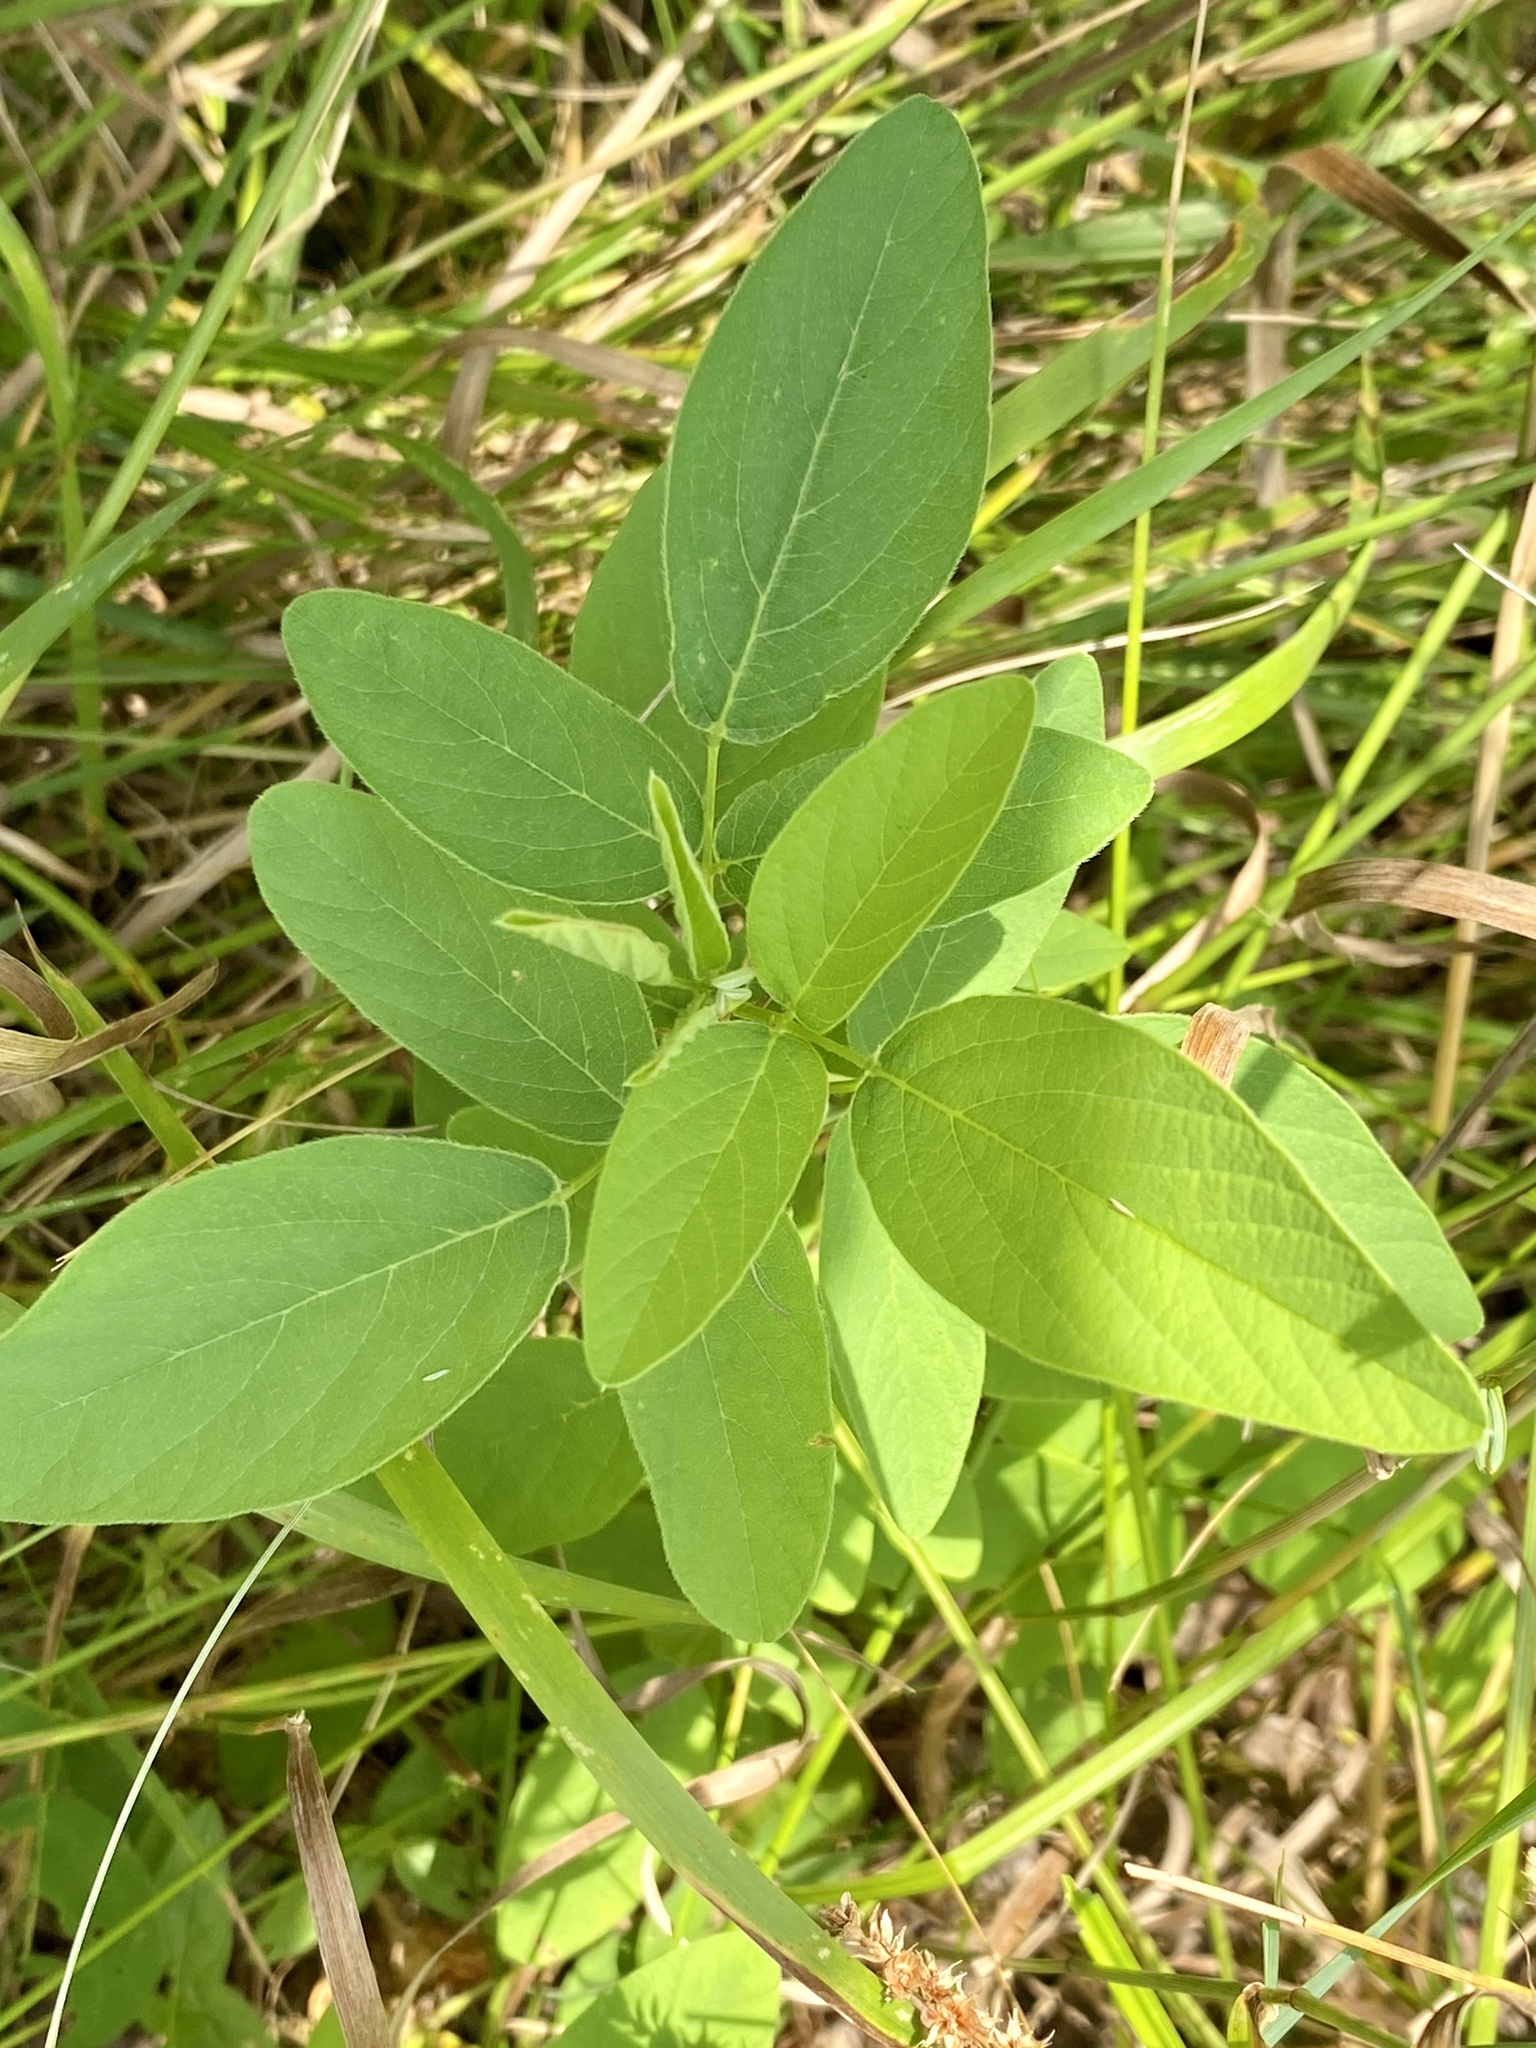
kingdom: Plantae
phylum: Tracheophyta
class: Magnoliopsida
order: Fabales
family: Fabaceae
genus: Desmodium
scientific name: Desmodium canadense
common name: Canada tick-trefoil
